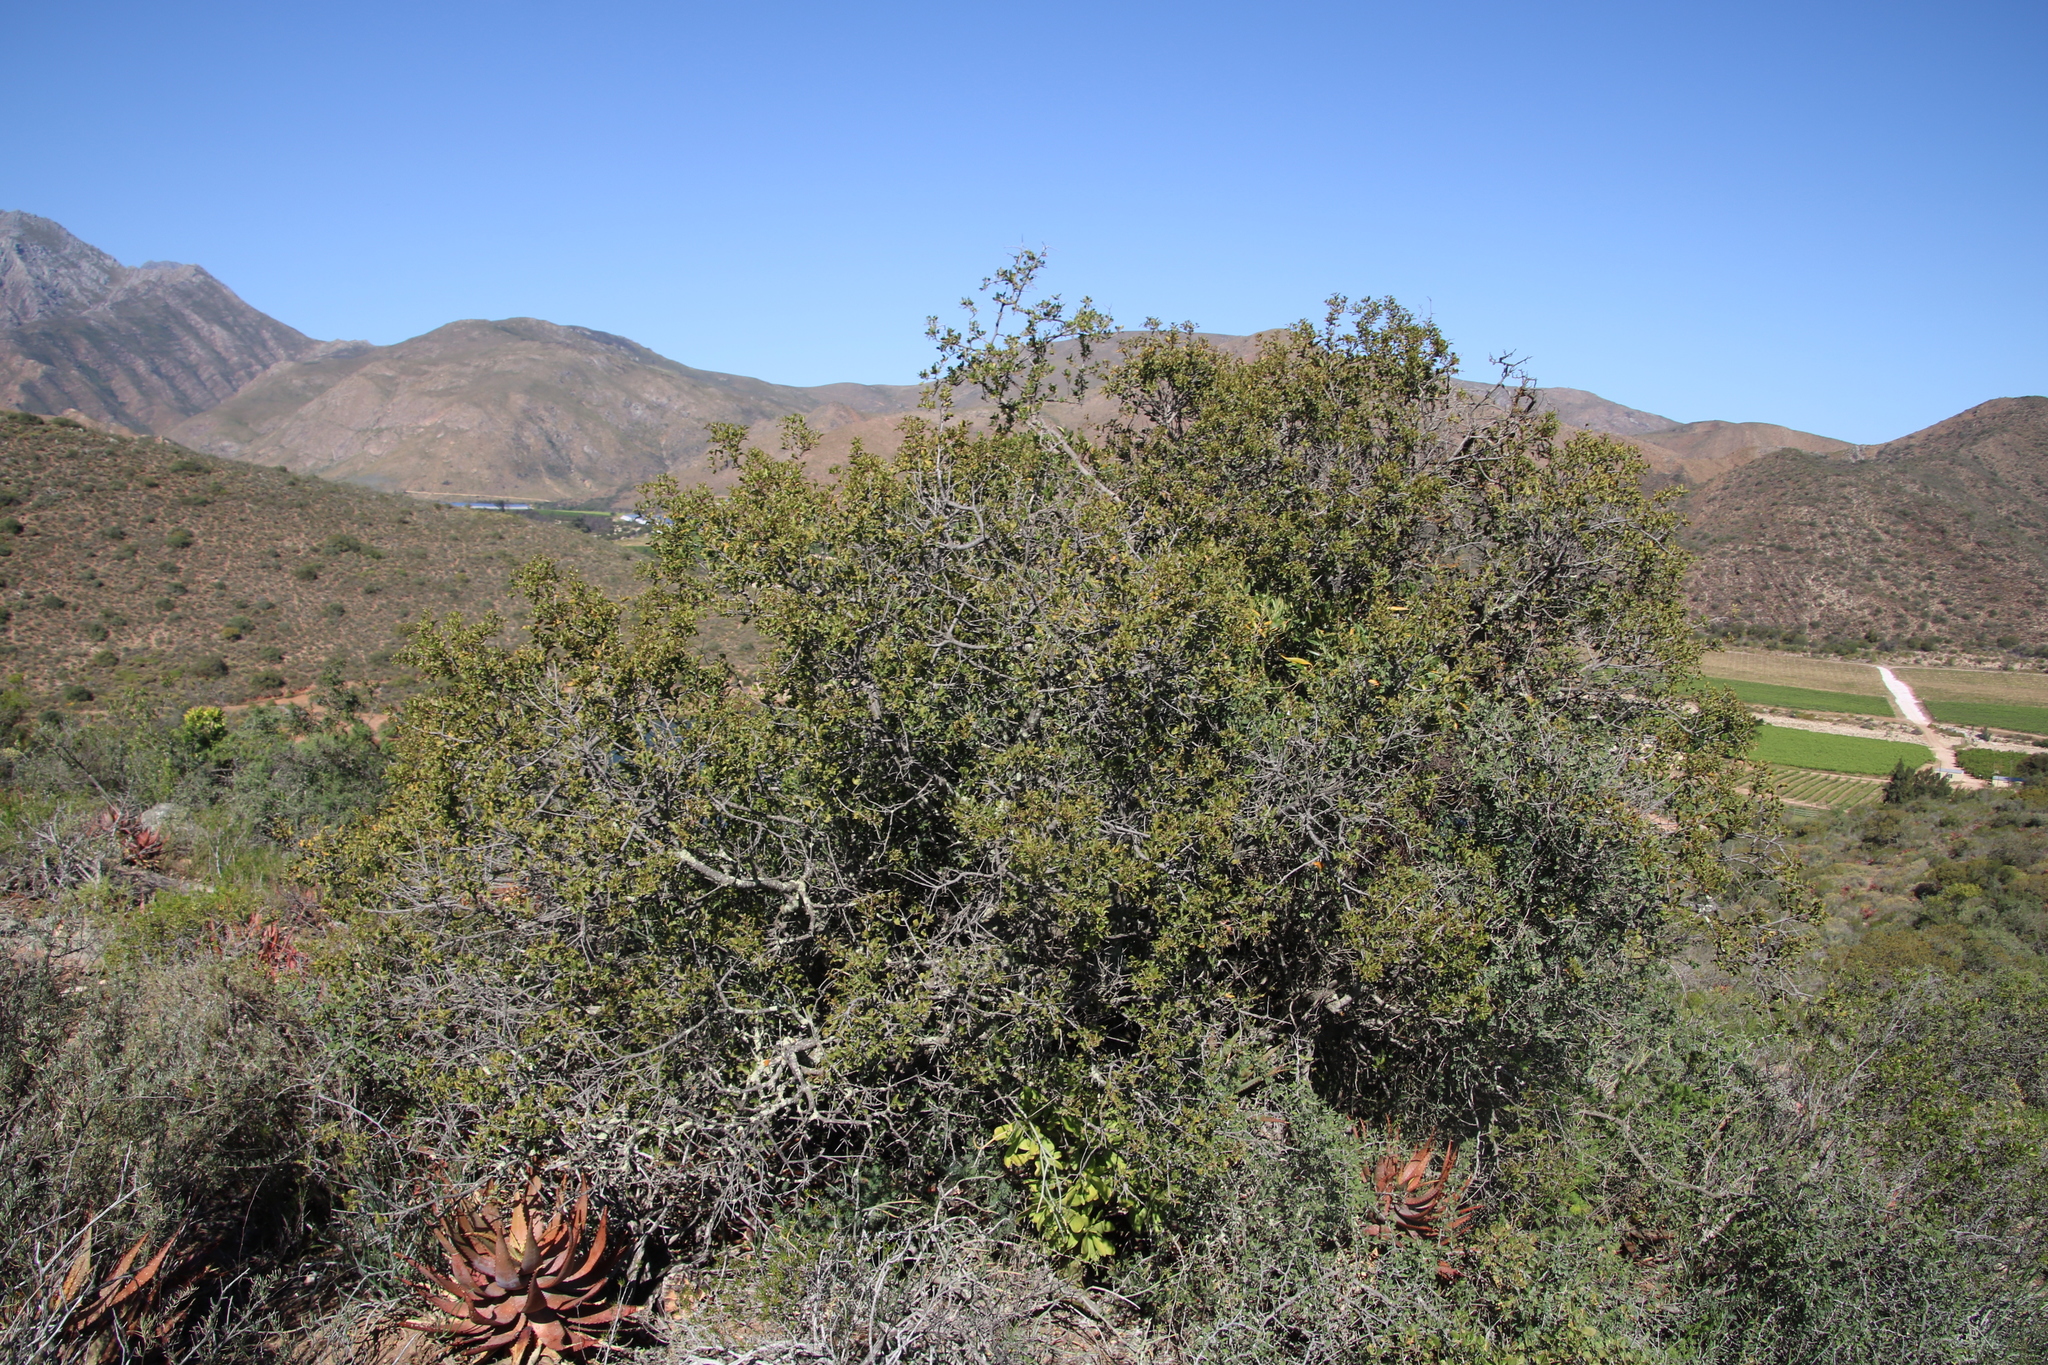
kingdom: Plantae
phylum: Tracheophyta
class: Magnoliopsida
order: Ericales
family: Ebenaceae
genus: Euclea
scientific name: Euclea undulata
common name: Small-leaved guarri
